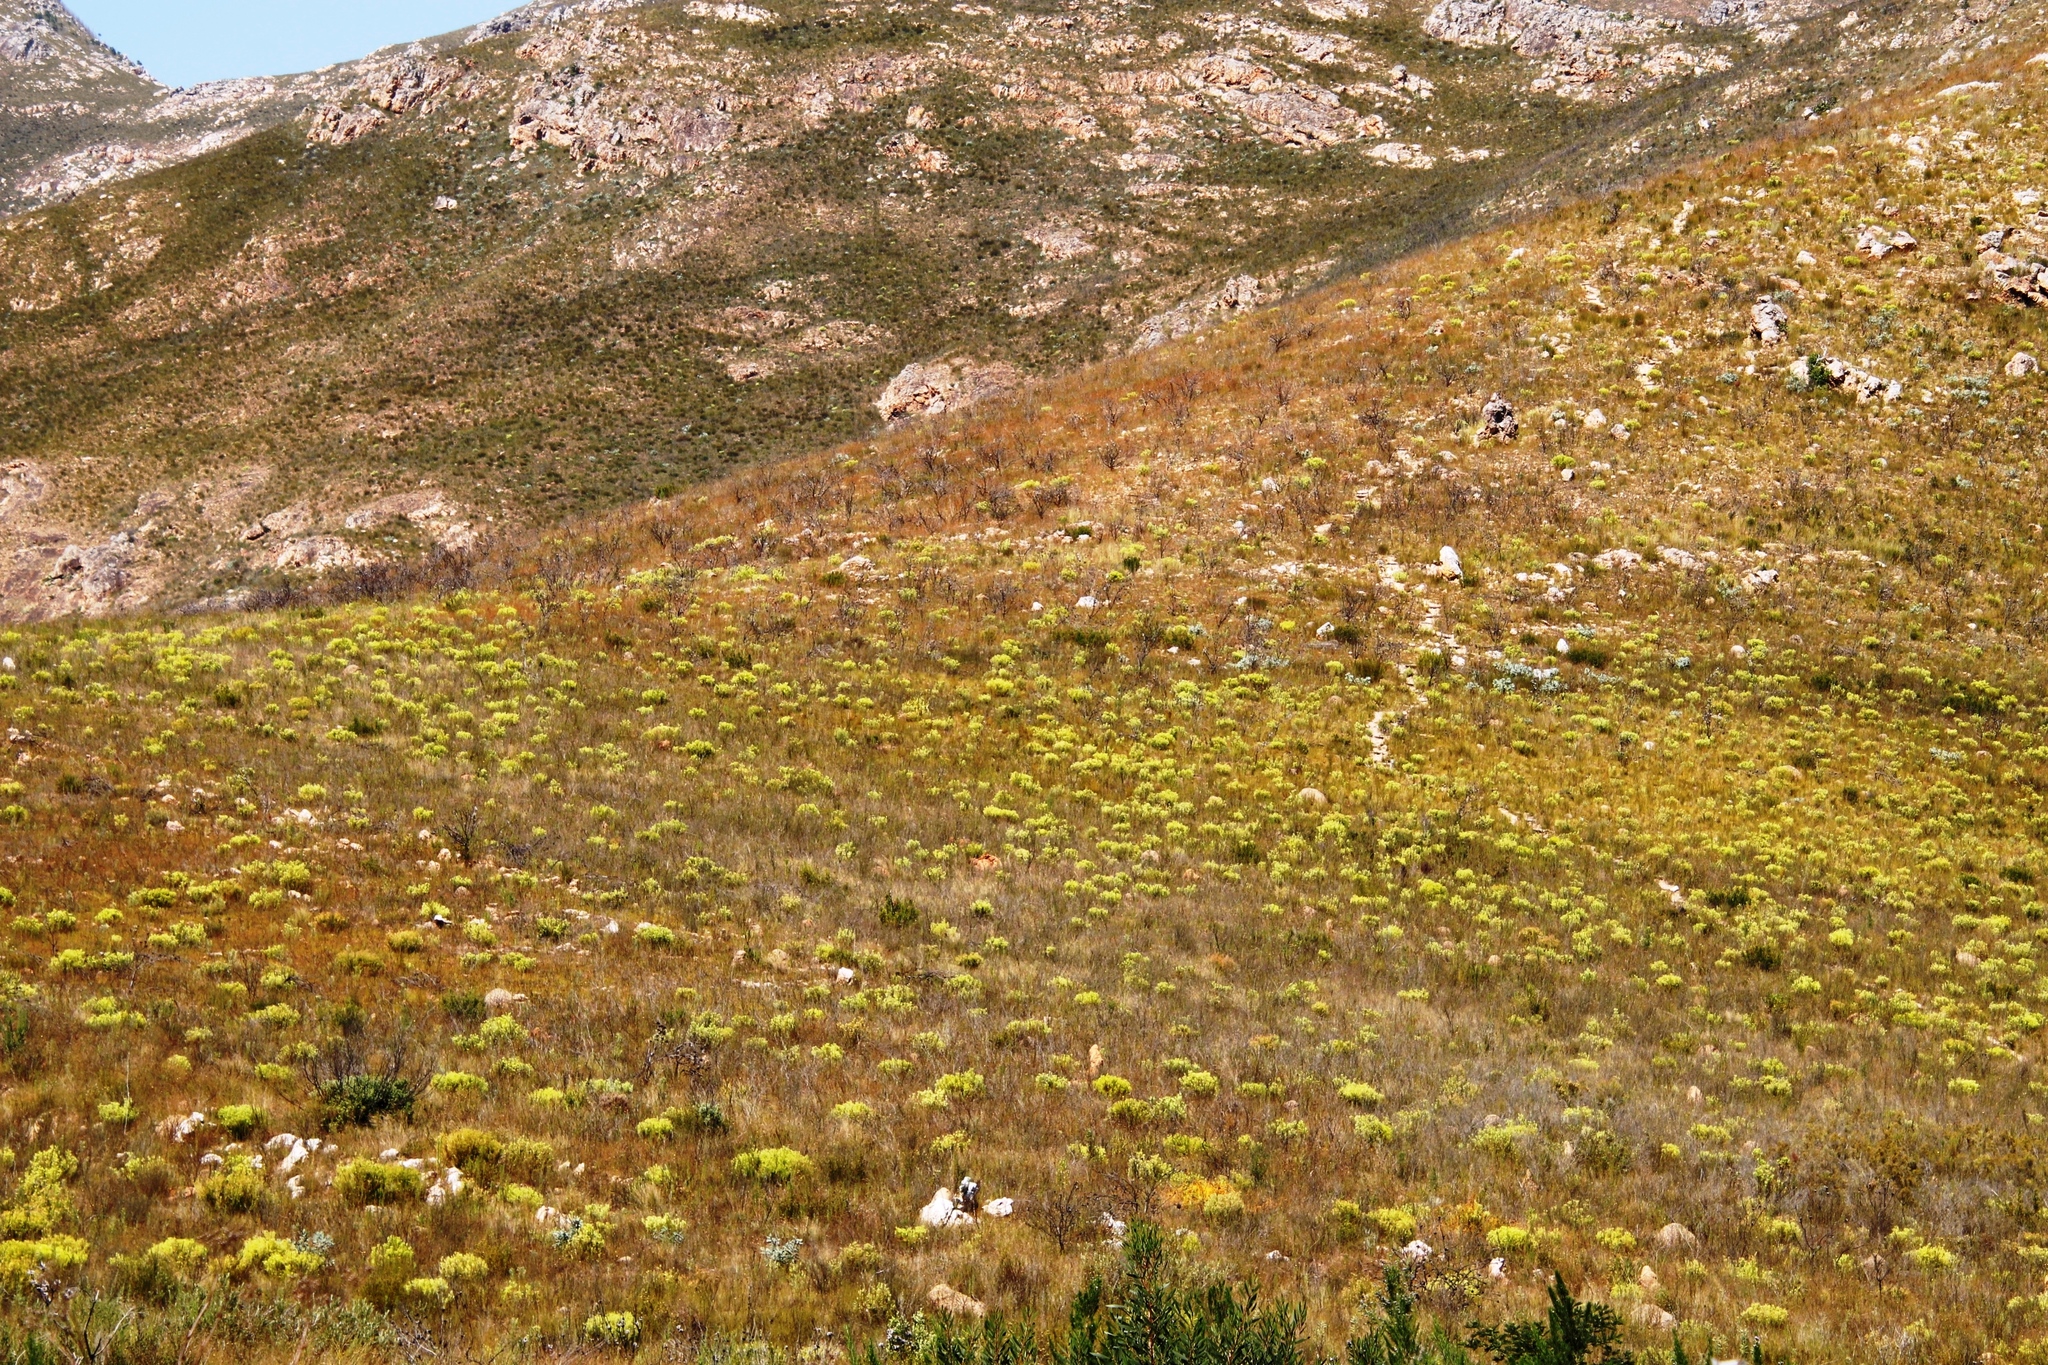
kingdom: Plantae
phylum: Tracheophyta
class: Magnoliopsida
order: Proteales
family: Proteaceae
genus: Leucadendron
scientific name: Leucadendron salignum
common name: Common sunshine conebush
